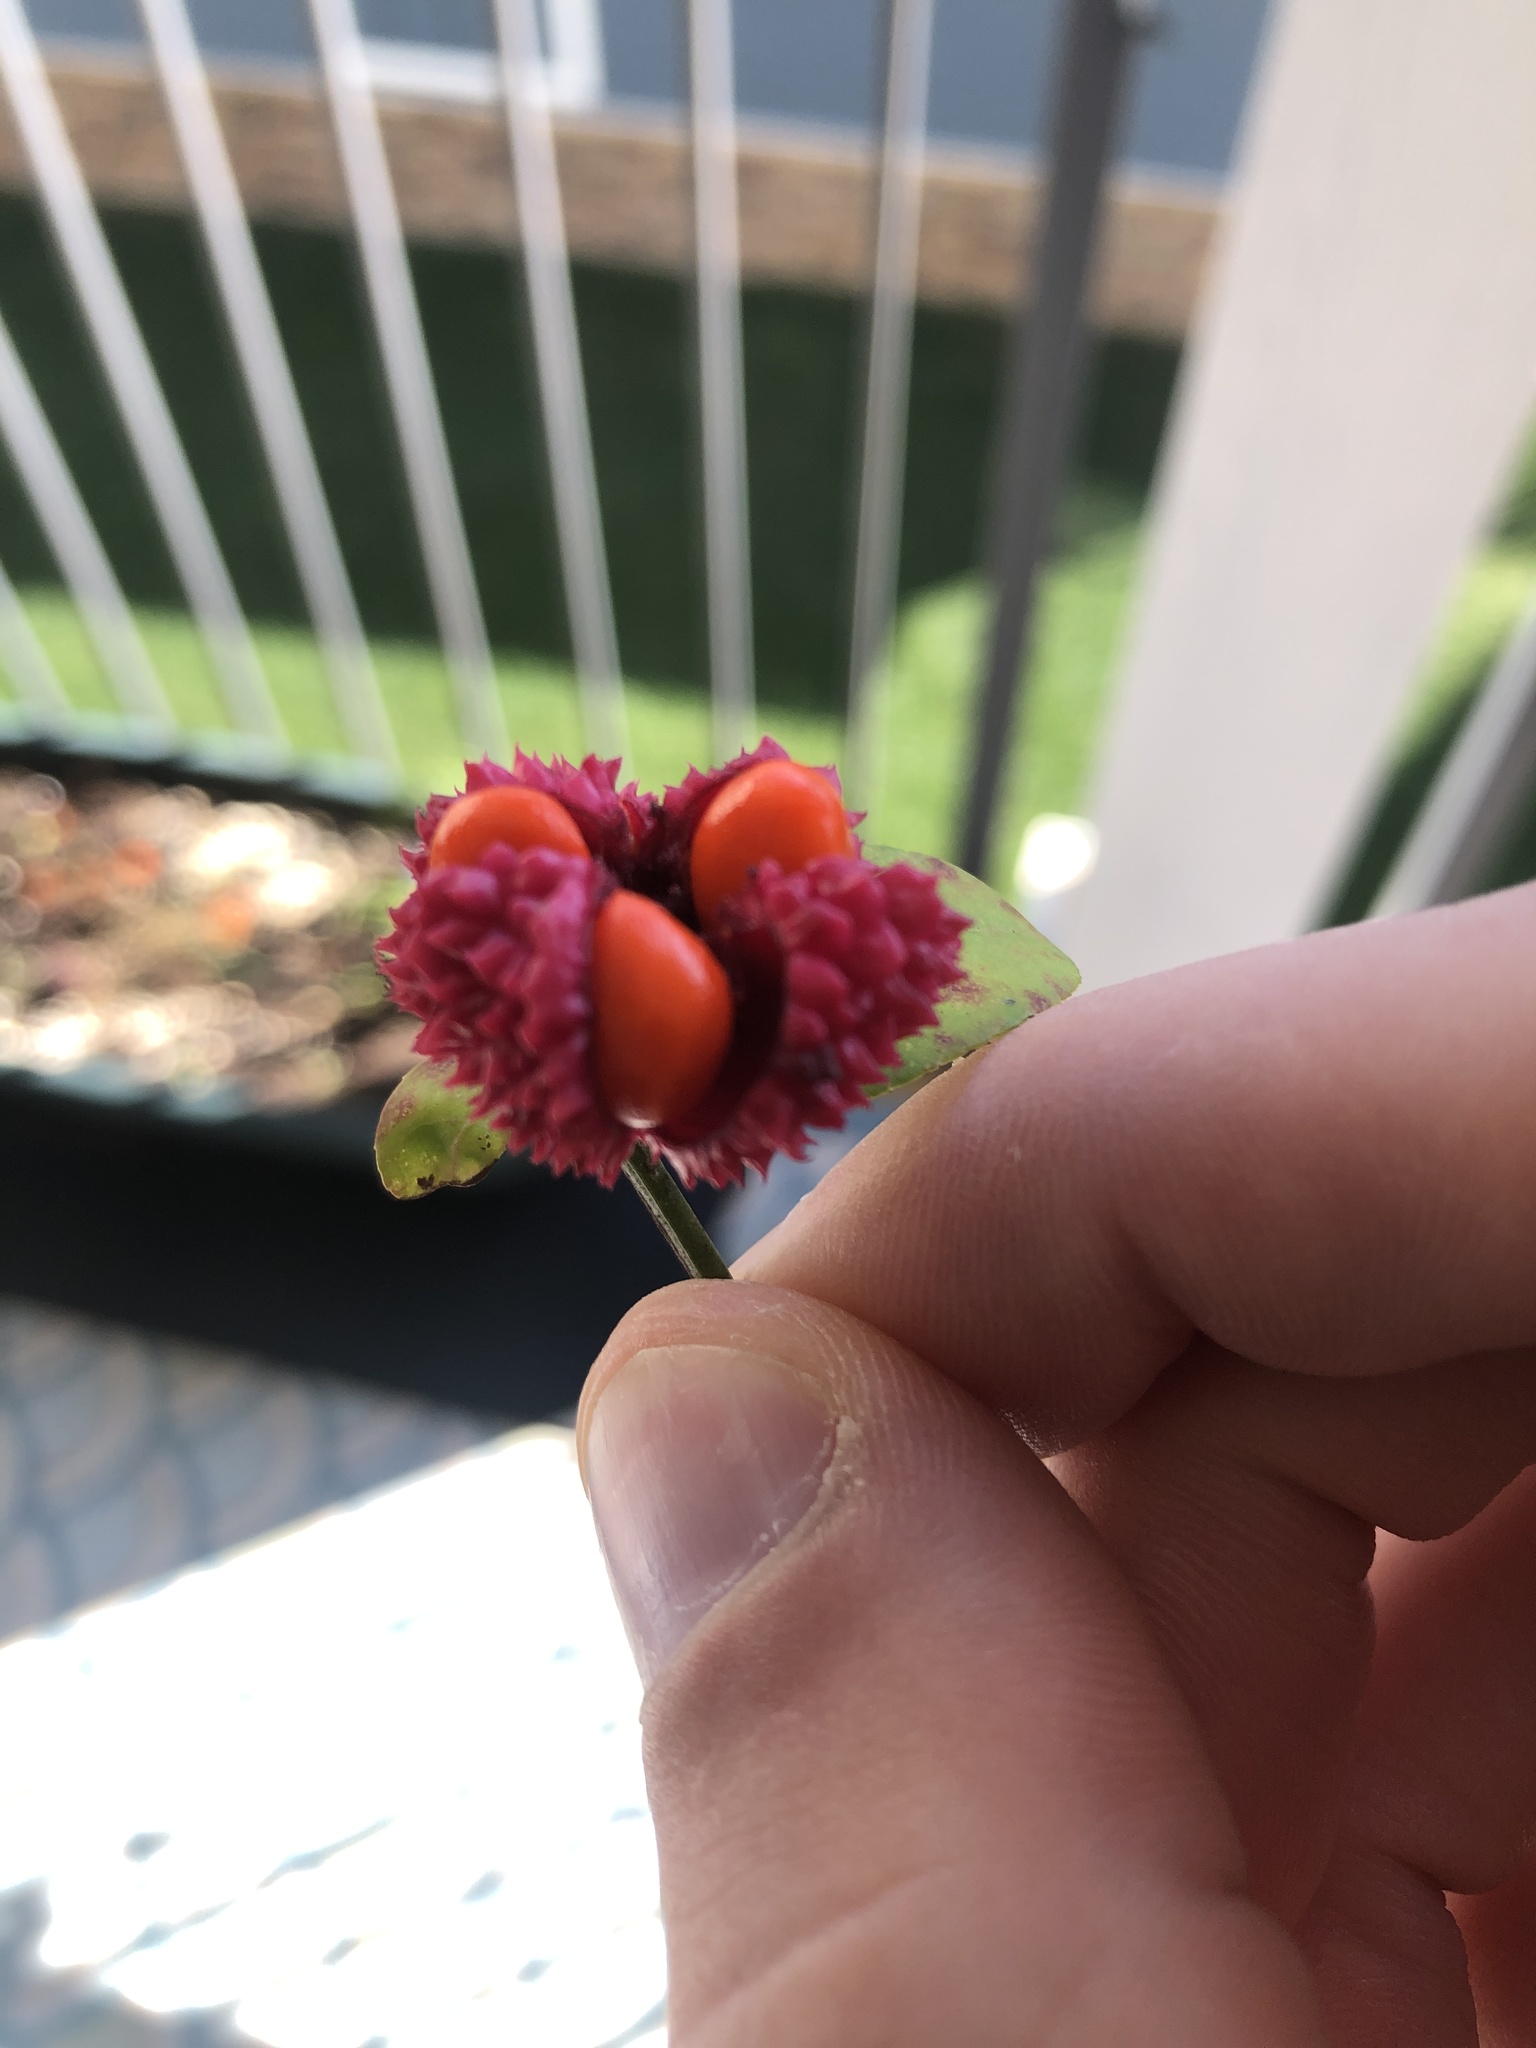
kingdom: Plantae
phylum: Tracheophyta
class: Magnoliopsida
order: Celastrales
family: Celastraceae
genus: Euonymus
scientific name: Euonymus americanus
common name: Bursting-heart
